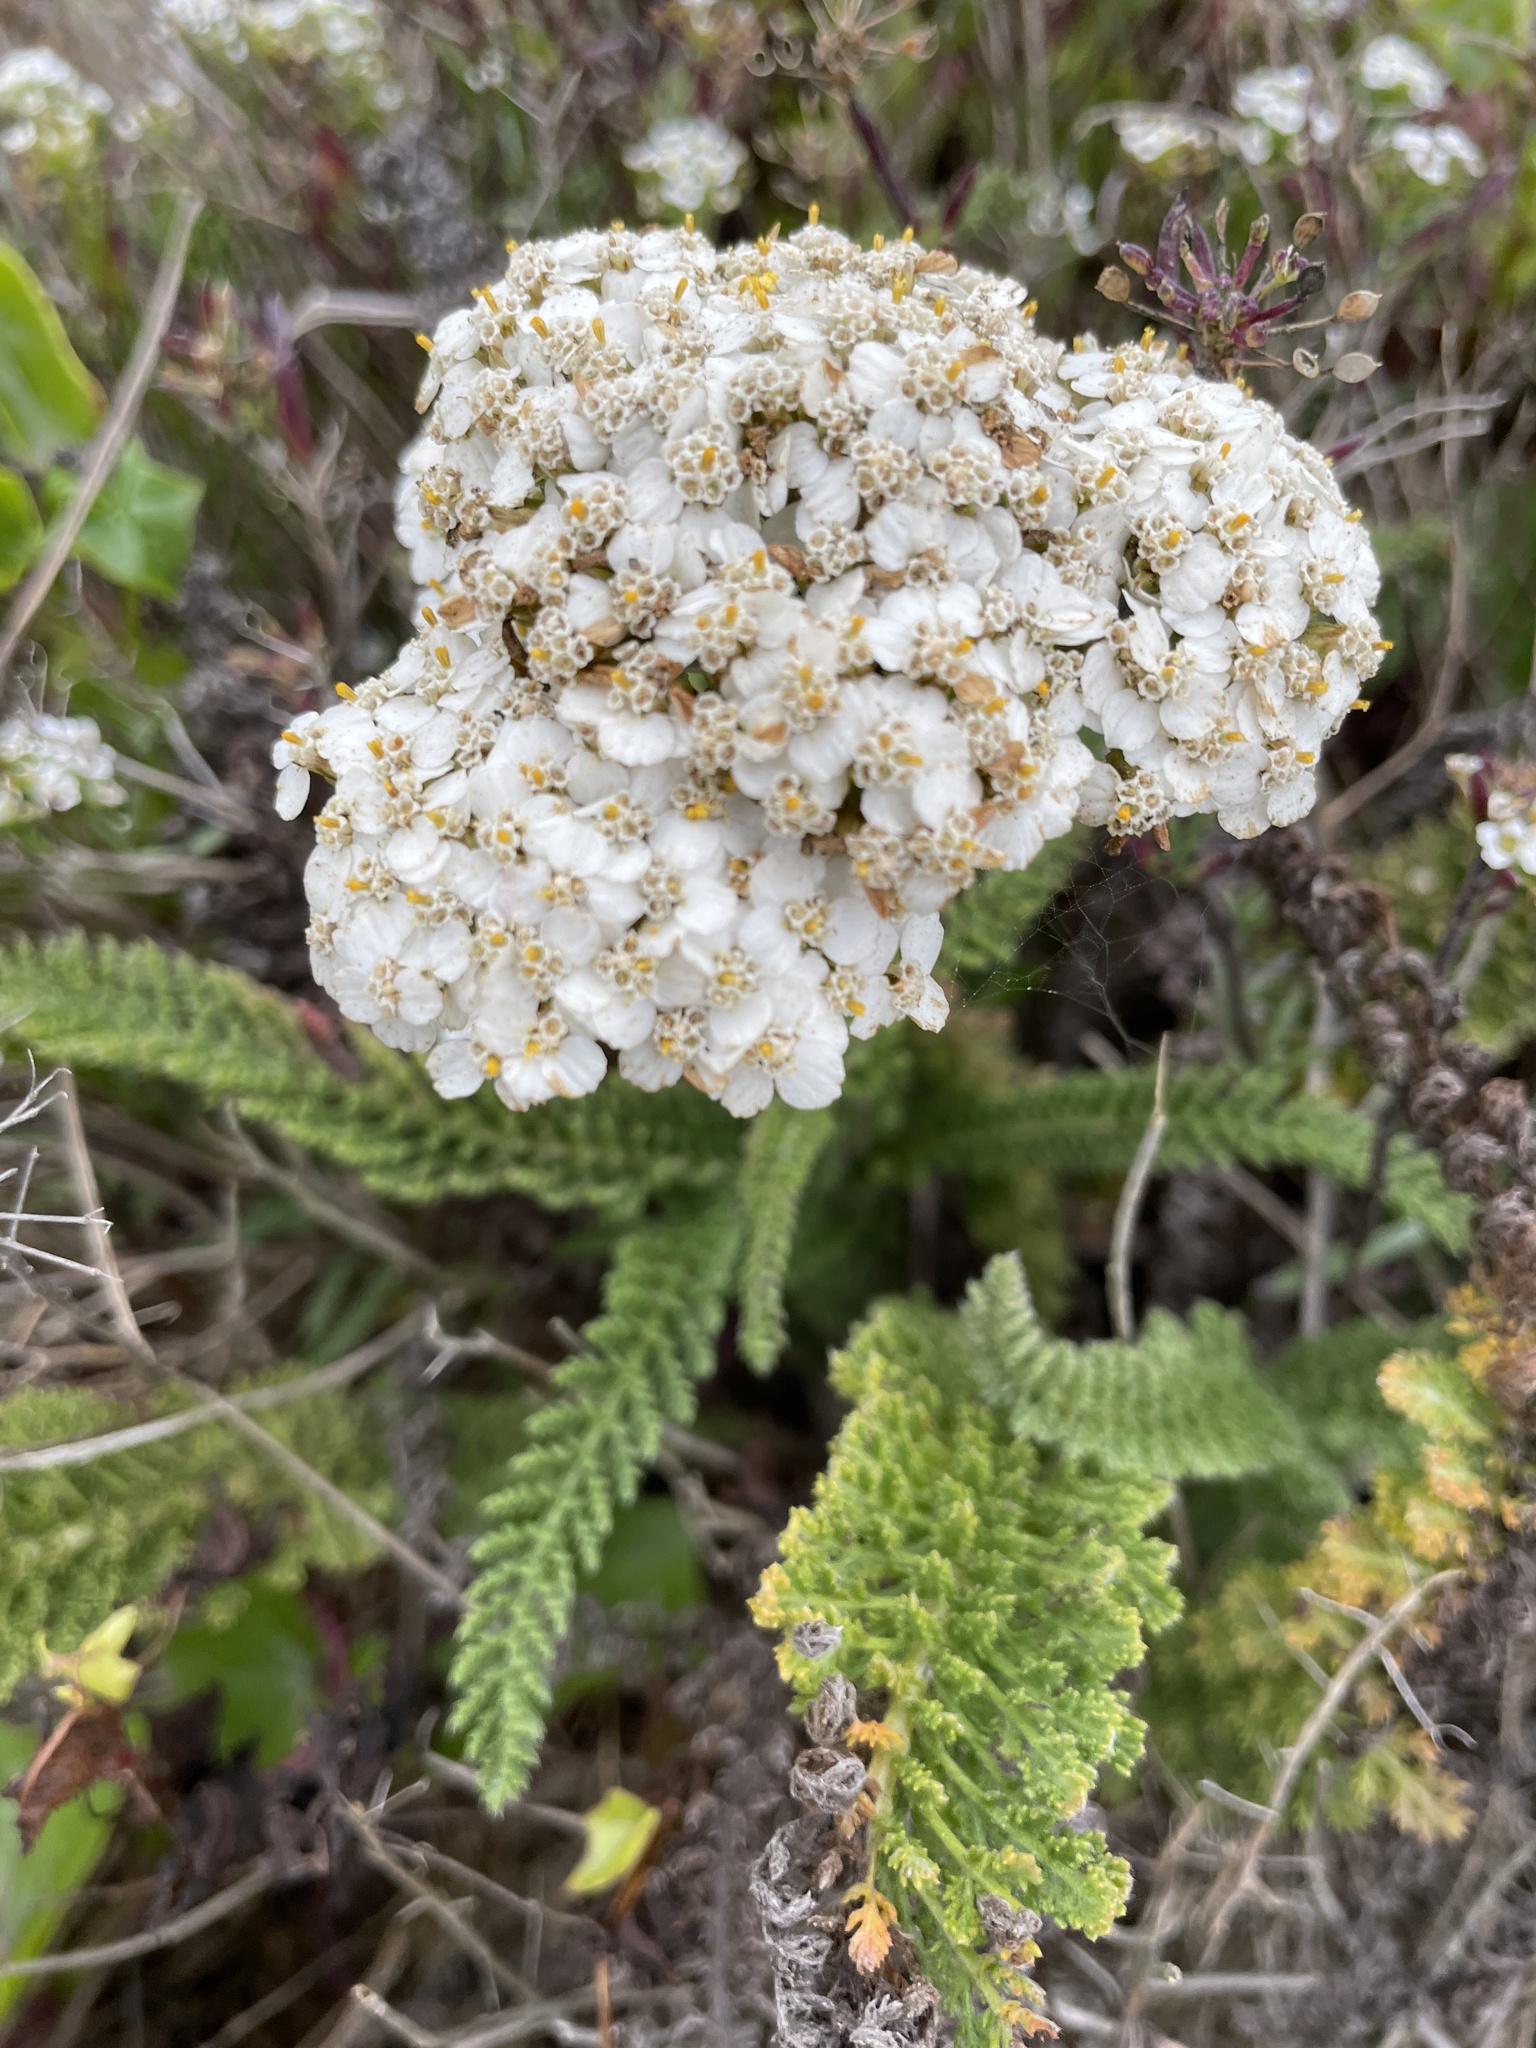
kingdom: Plantae
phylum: Tracheophyta
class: Magnoliopsida
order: Asterales
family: Asteraceae
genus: Achillea
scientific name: Achillea millefolium
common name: Yarrow
